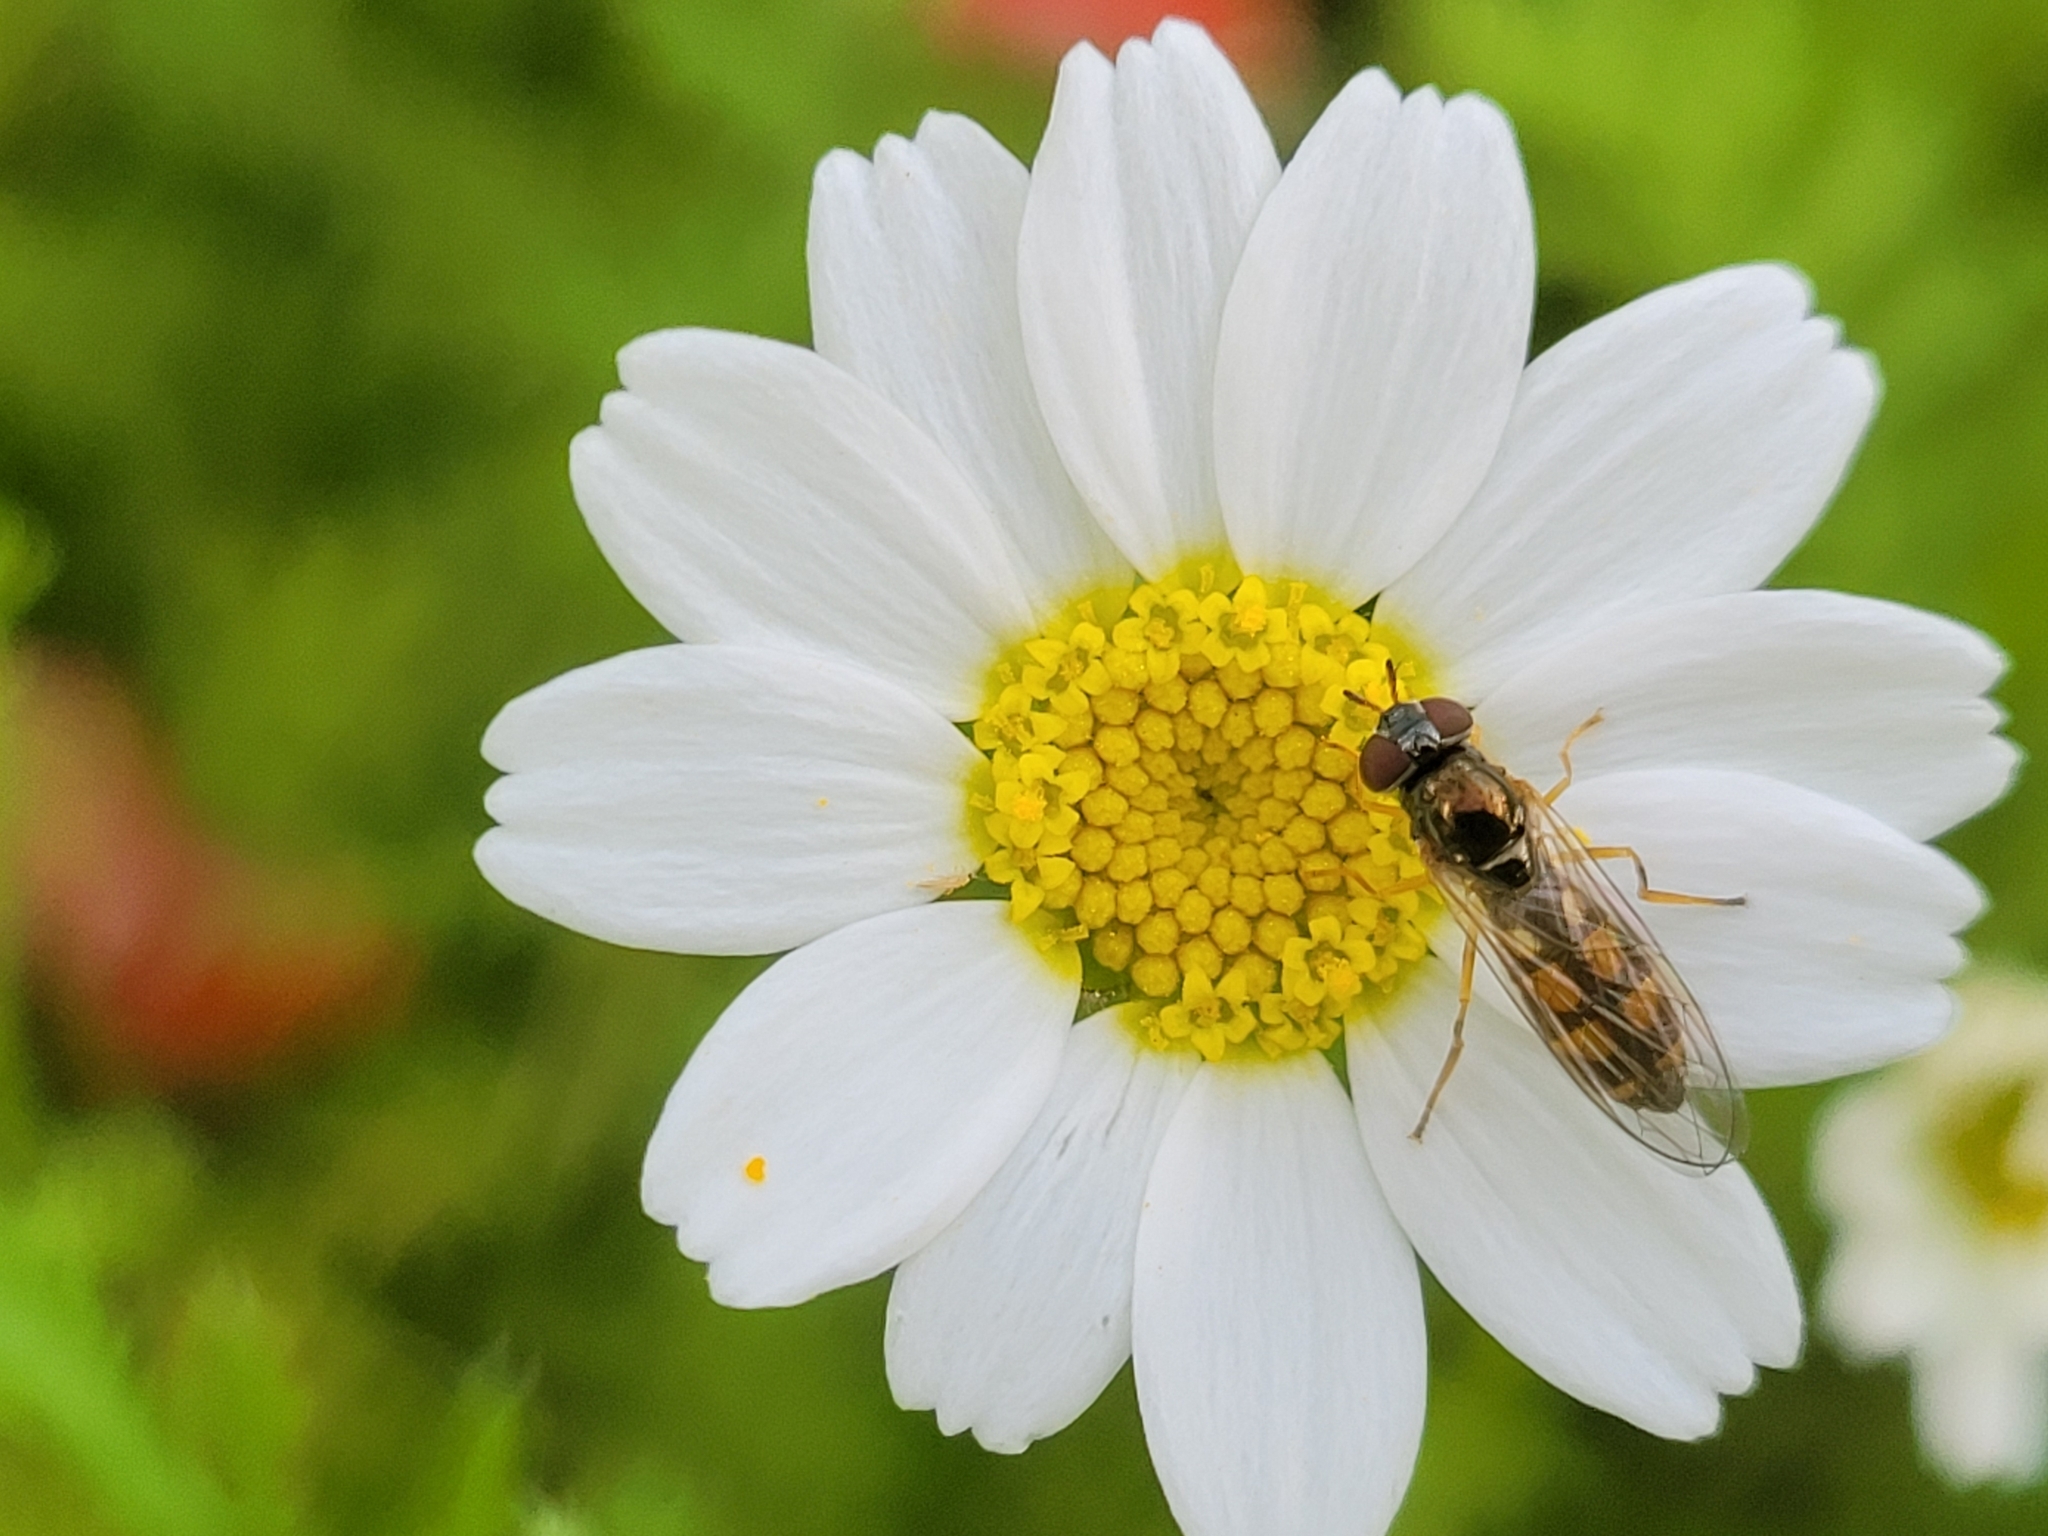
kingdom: Animalia
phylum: Arthropoda
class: Insecta
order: Diptera
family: Syrphidae
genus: Melanostoma
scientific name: Melanostoma mellina
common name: Hover fly
